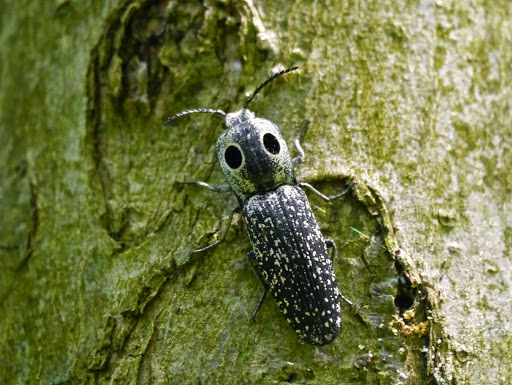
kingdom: Animalia
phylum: Arthropoda
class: Insecta
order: Coleoptera
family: Elateridae
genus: Alaus
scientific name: Alaus oculatus
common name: Eastern eyed click beetle
